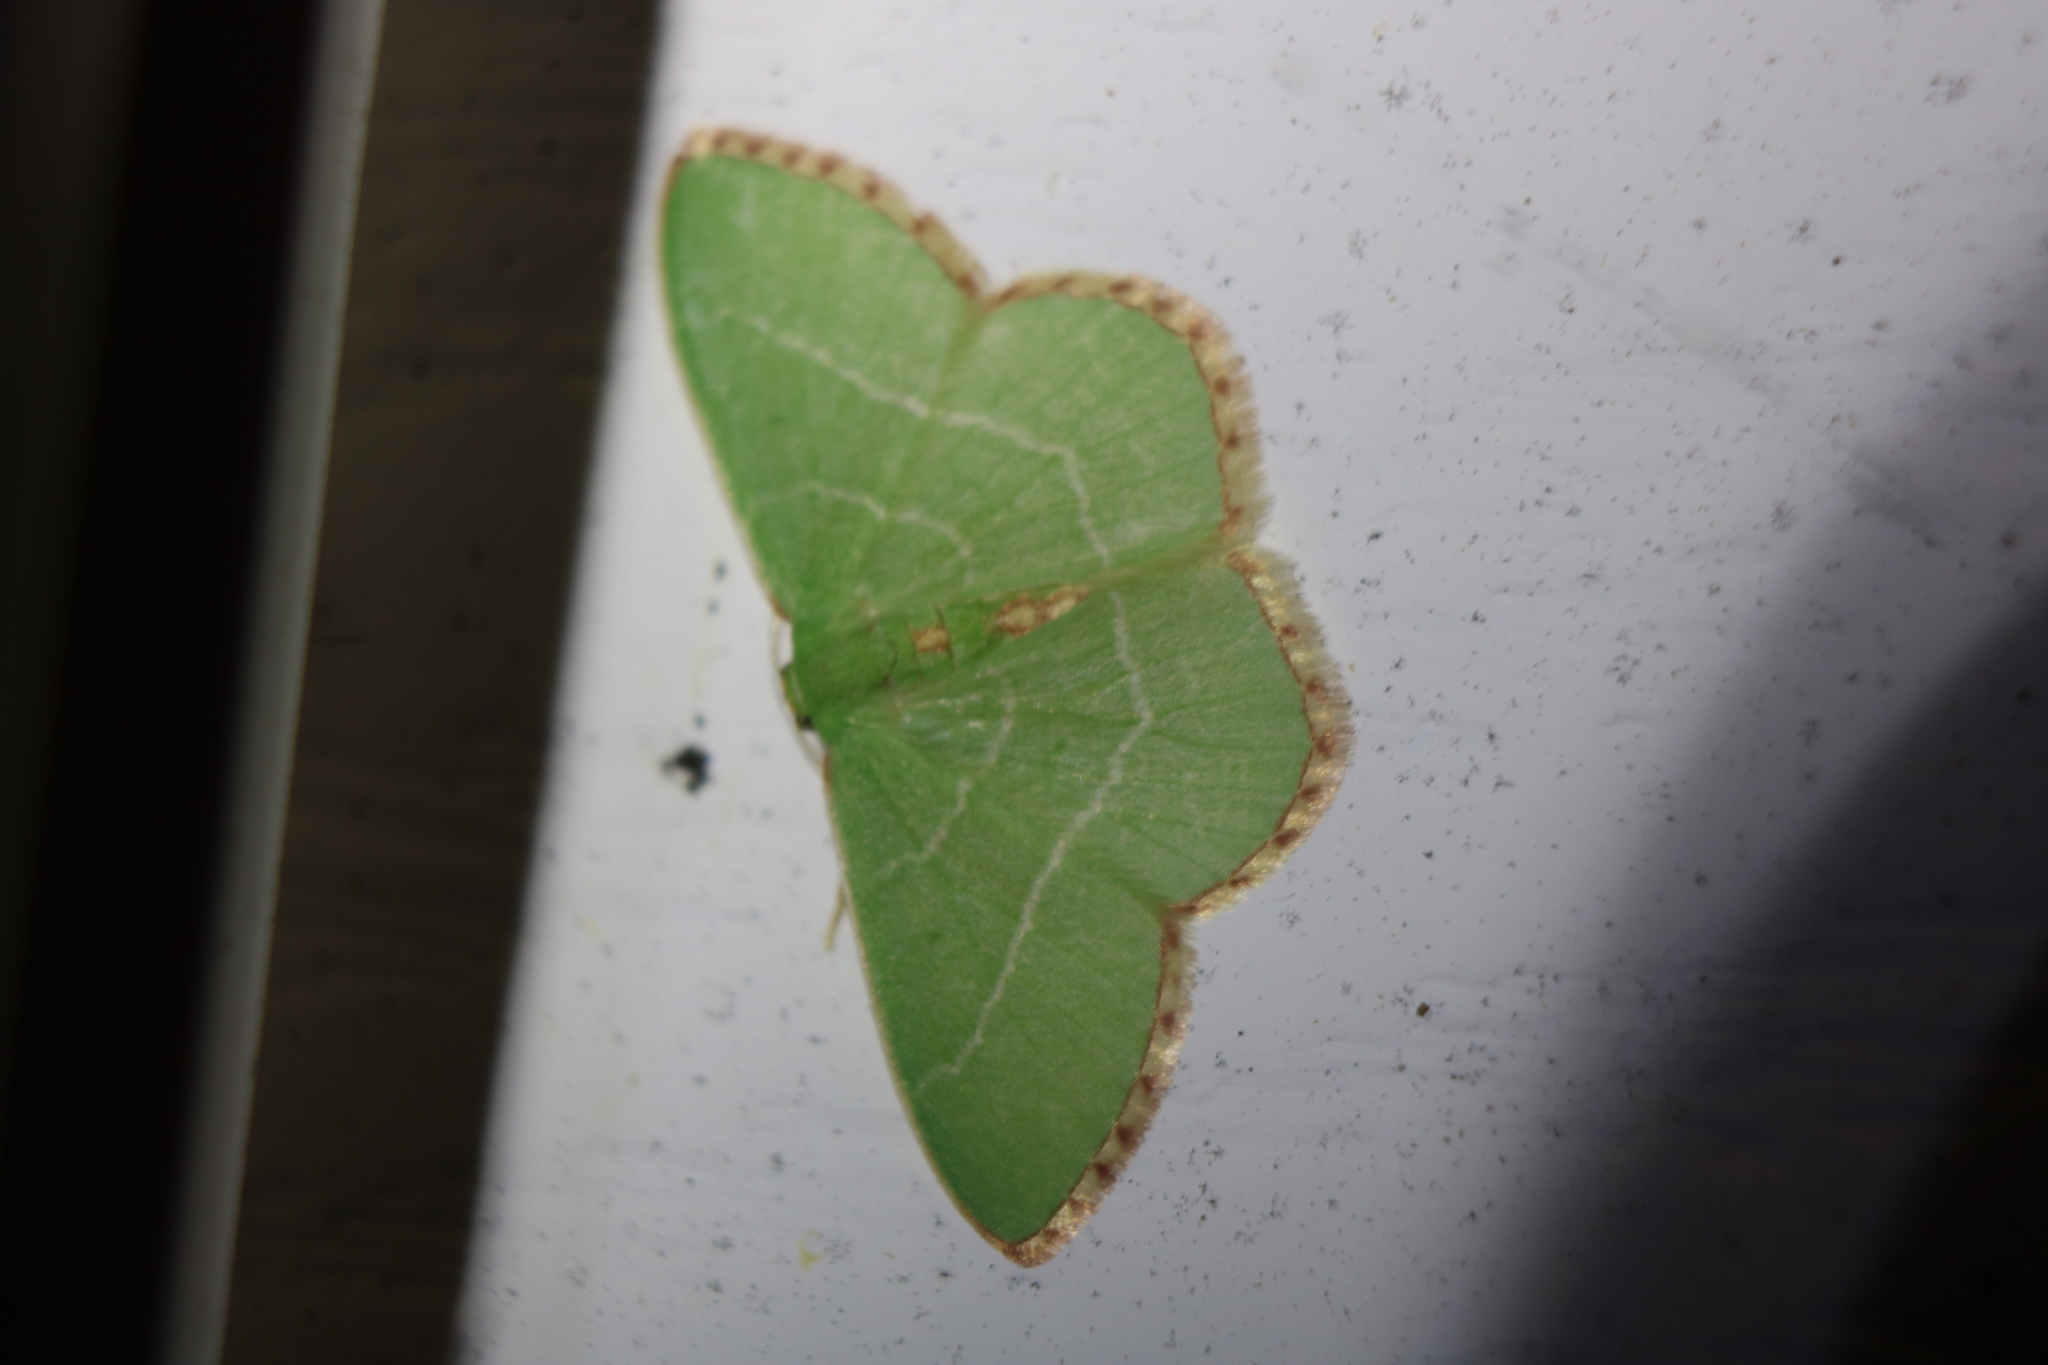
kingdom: Animalia
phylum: Arthropoda
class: Insecta
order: Lepidoptera
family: Geometridae
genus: Nemoria
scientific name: Nemoria bistriaria
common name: Red-fringed emerald
